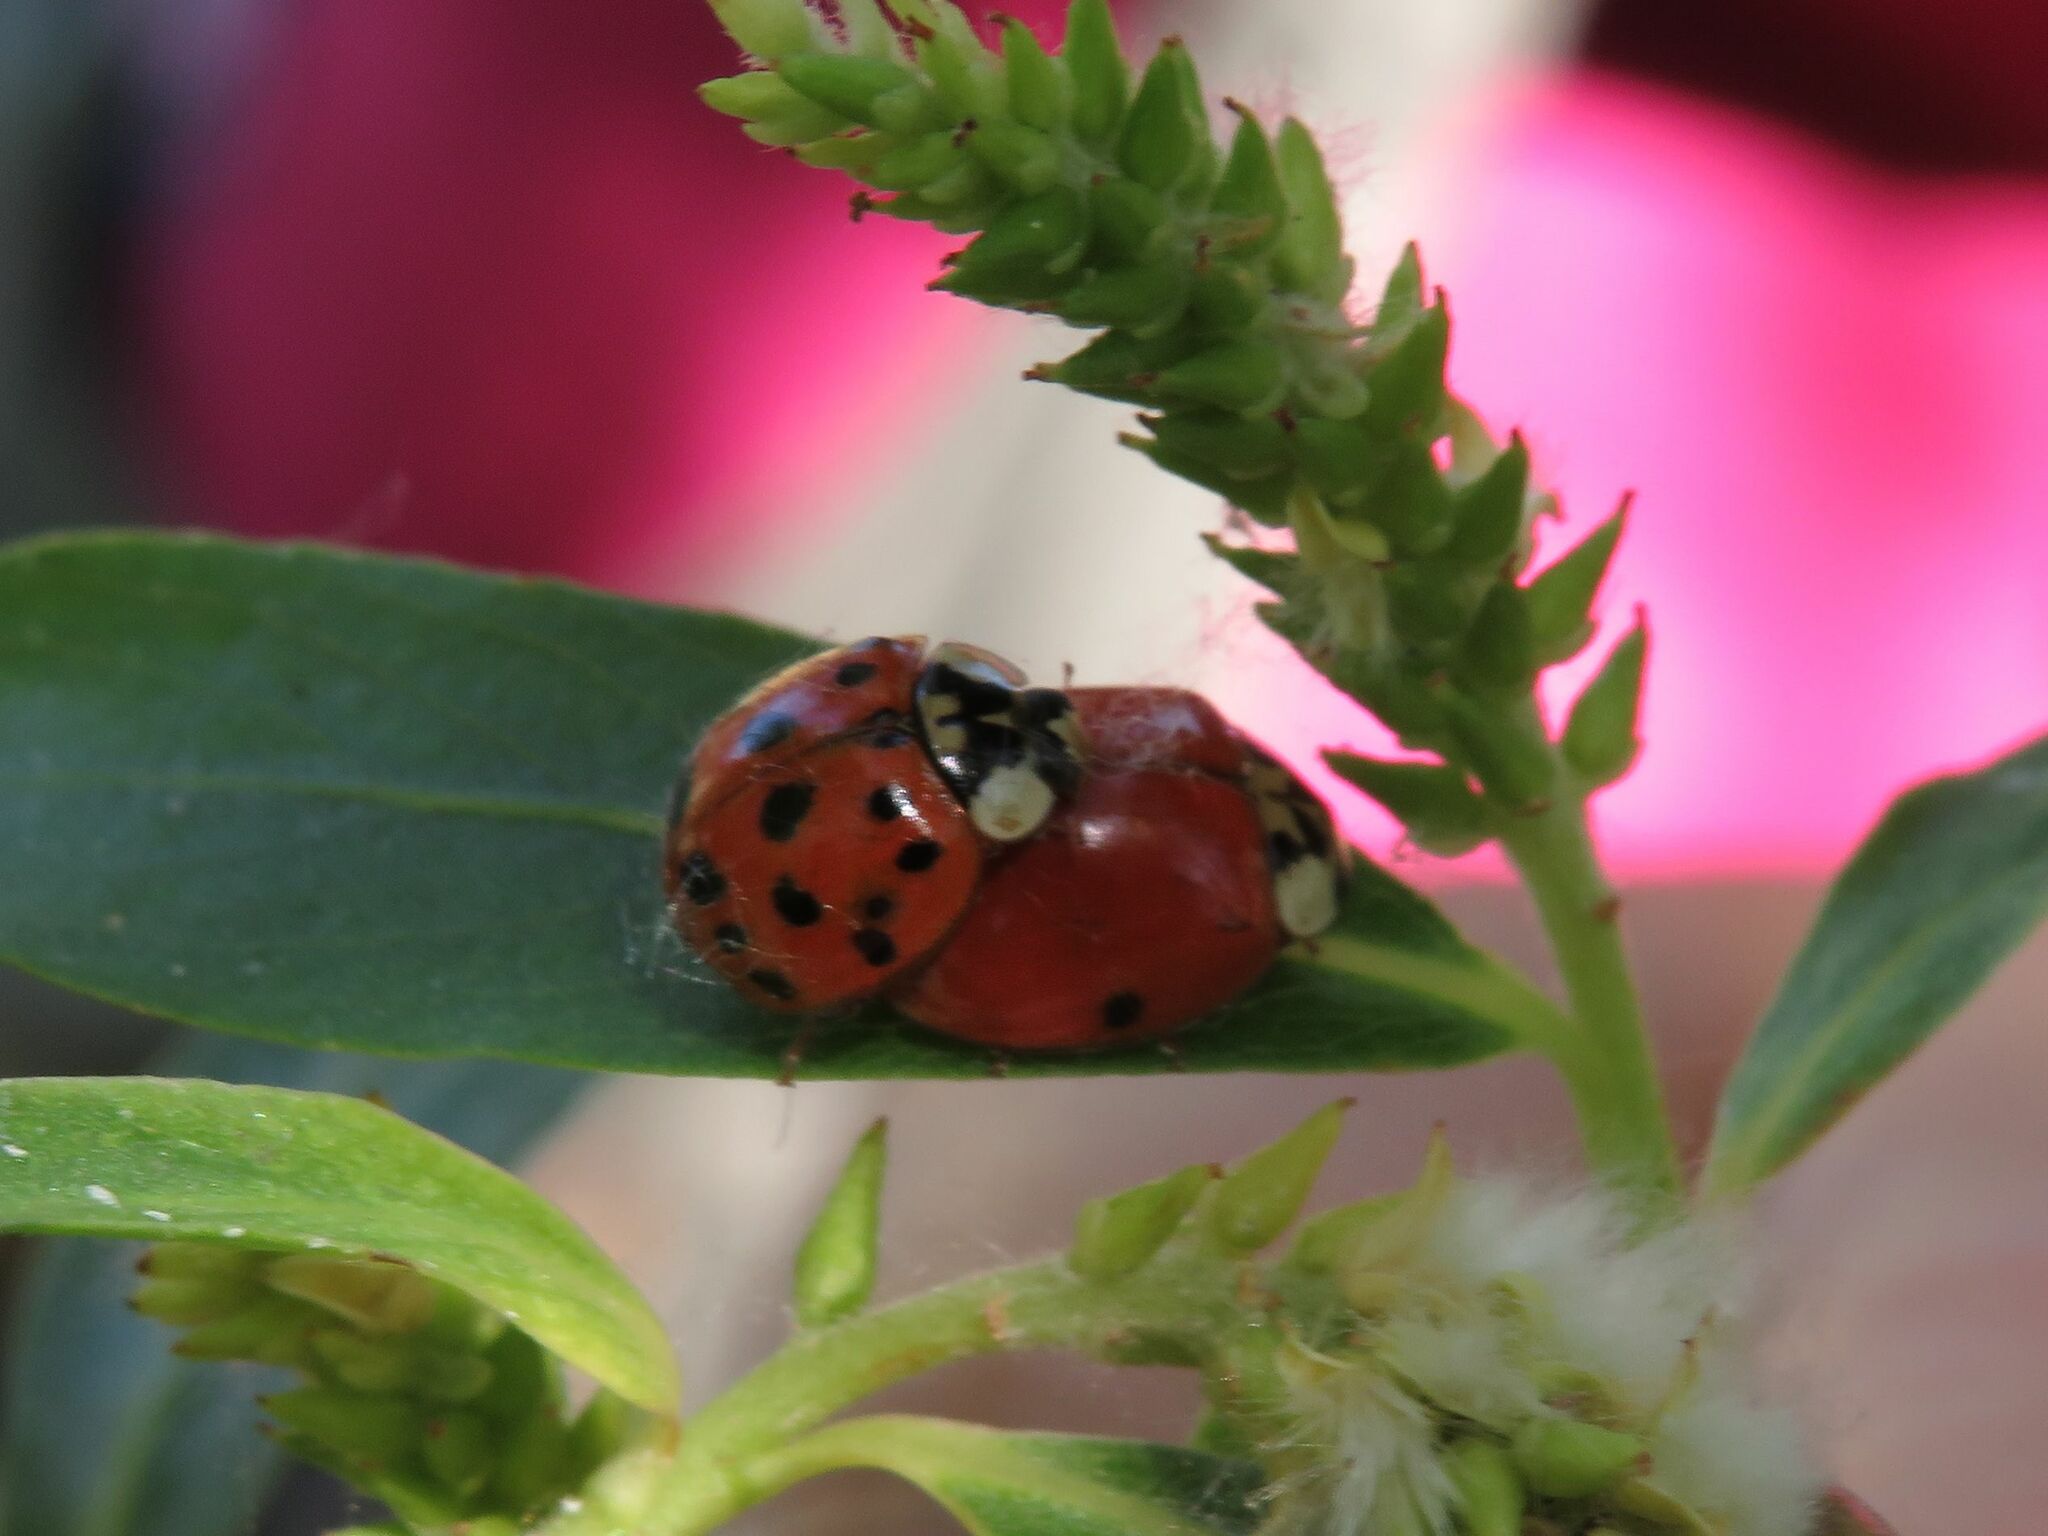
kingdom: Animalia
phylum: Arthropoda
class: Insecta
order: Coleoptera
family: Coccinellidae
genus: Harmonia
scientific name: Harmonia axyridis
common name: Harlequin ladybird
